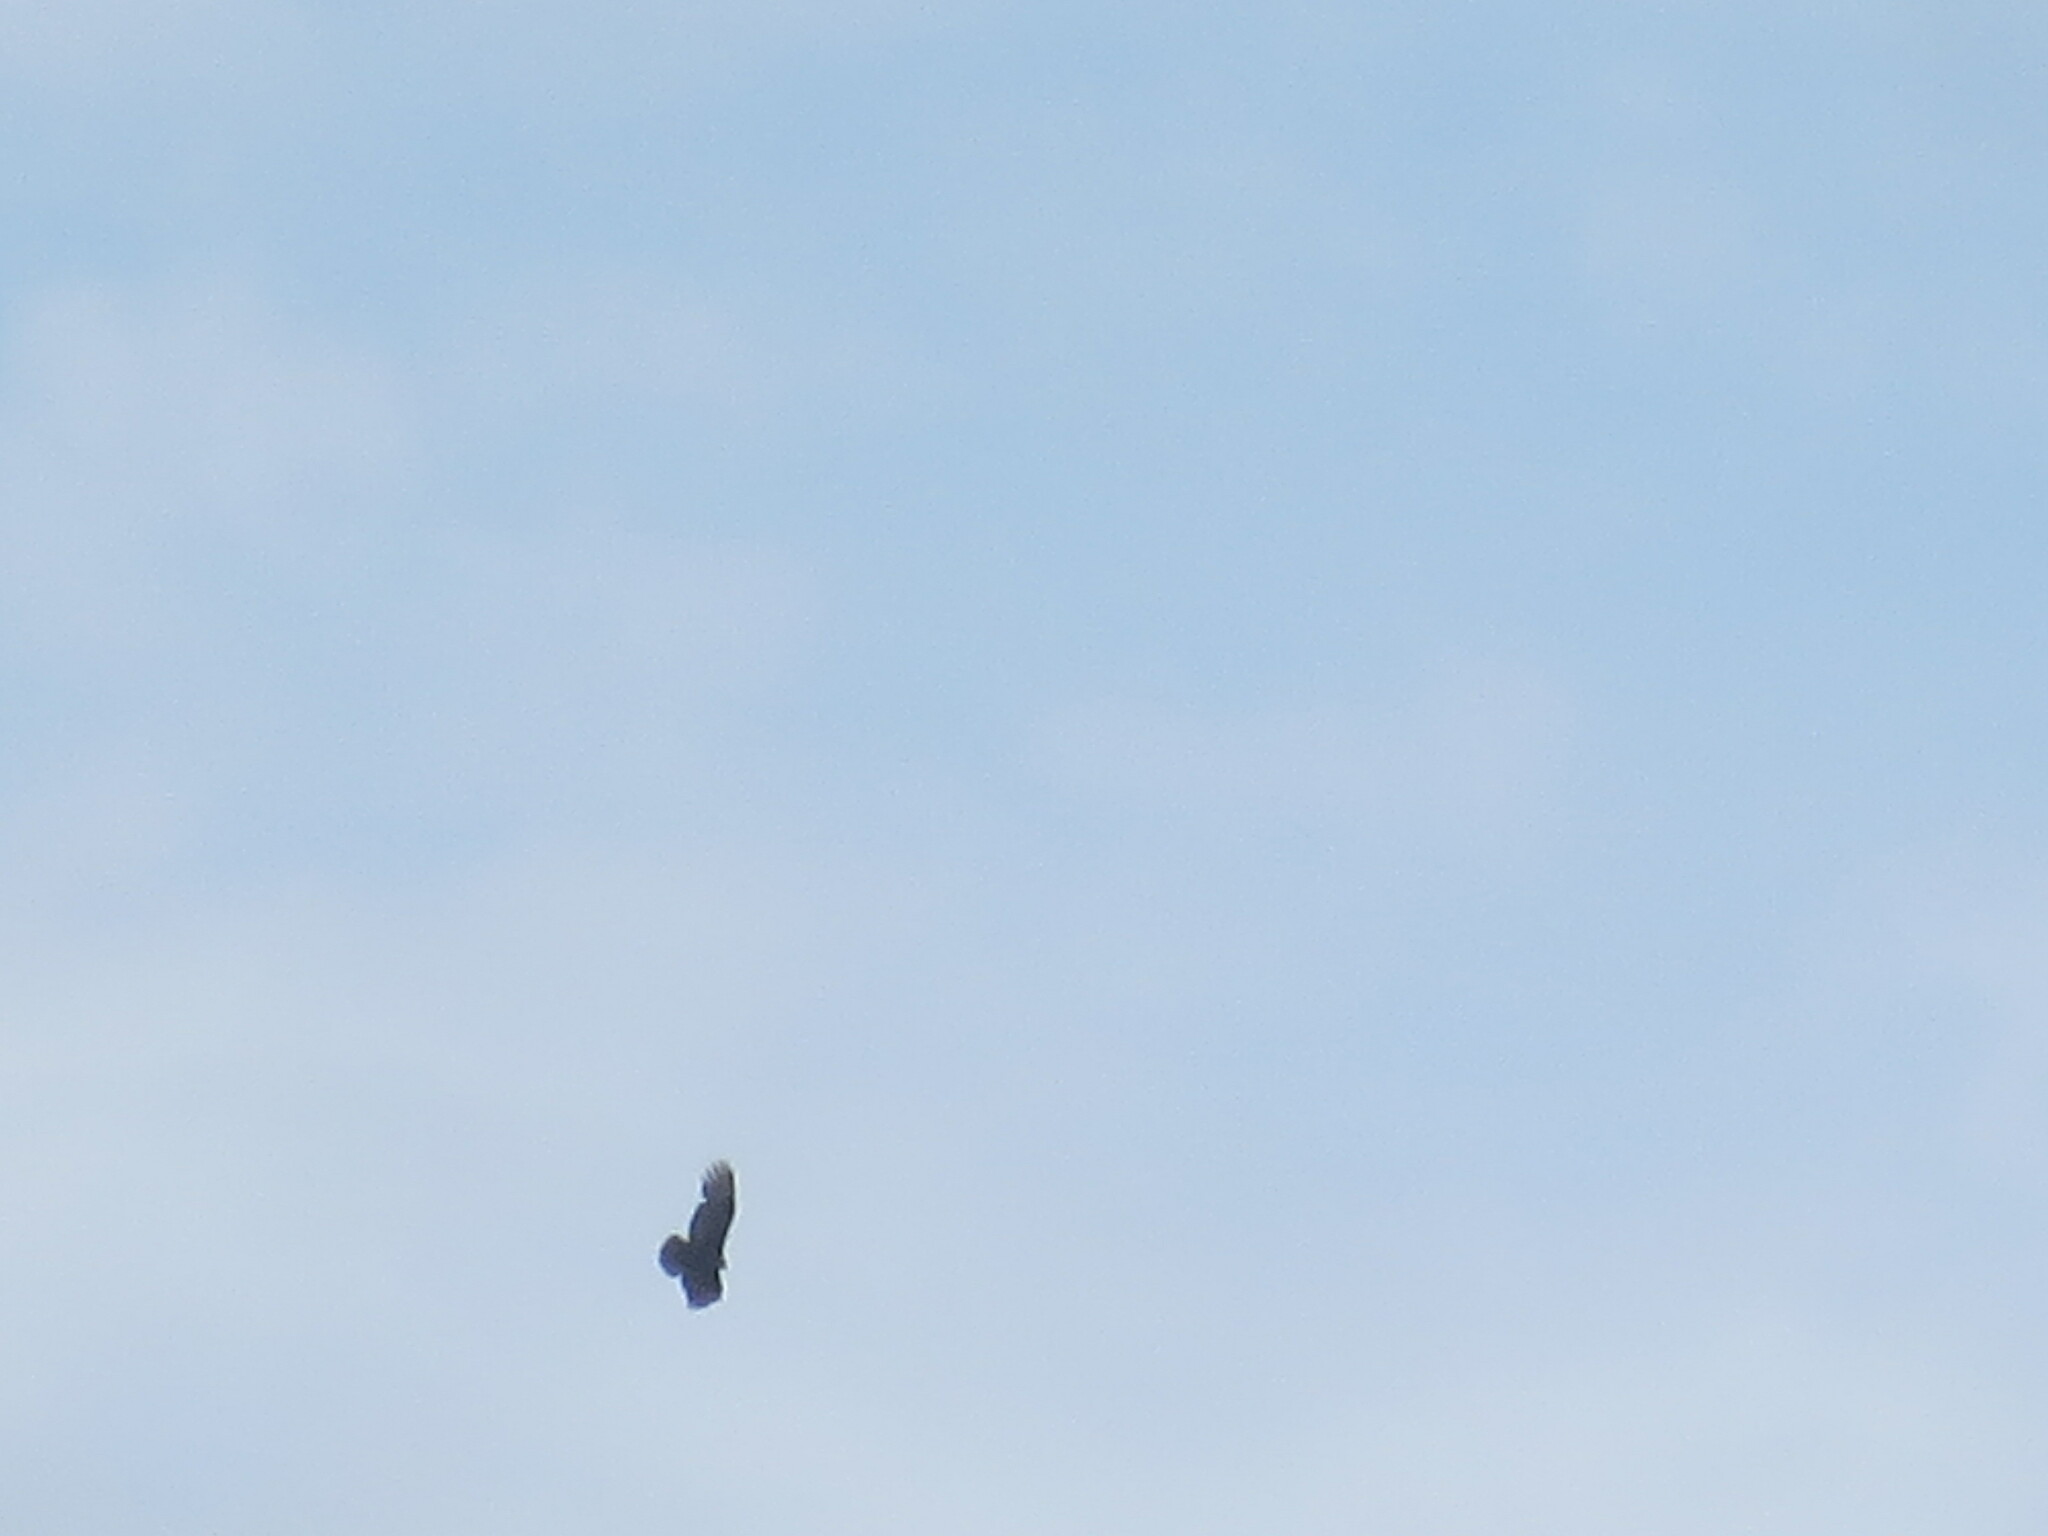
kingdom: Animalia
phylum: Chordata
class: Aves
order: Accipitriformes
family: Cathartidae
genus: Cathartes
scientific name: Cathartes aura
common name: Turkey vulture
